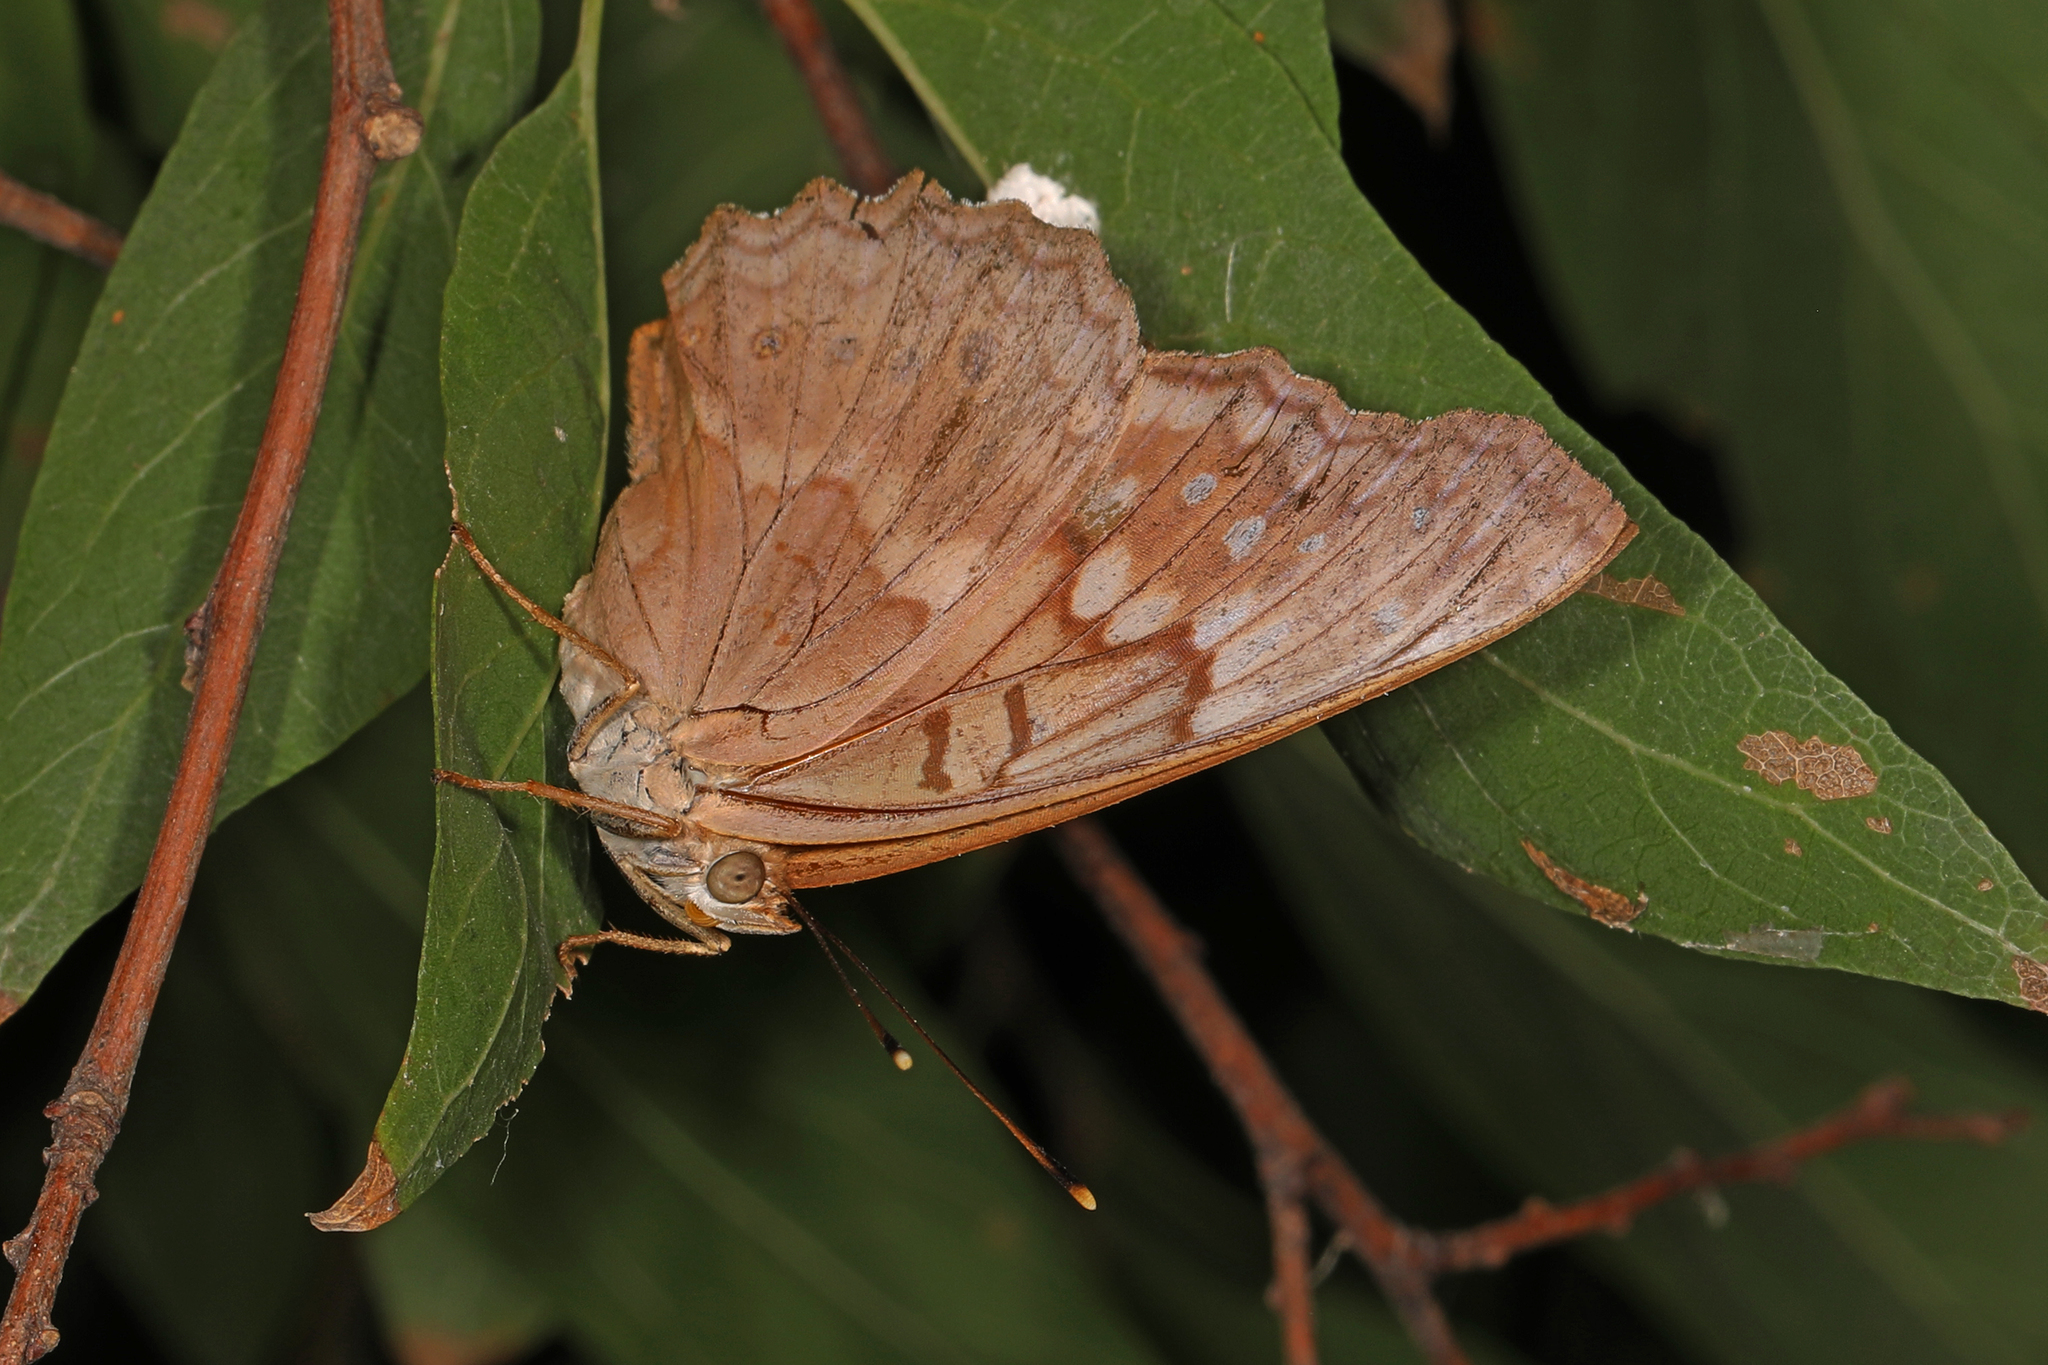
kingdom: Animalia
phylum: Arthropoda
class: Insecta
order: Lepidoptera
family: Nymphalidae
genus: Asterocampa
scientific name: Asterocampa clyton
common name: Tawny emperor
